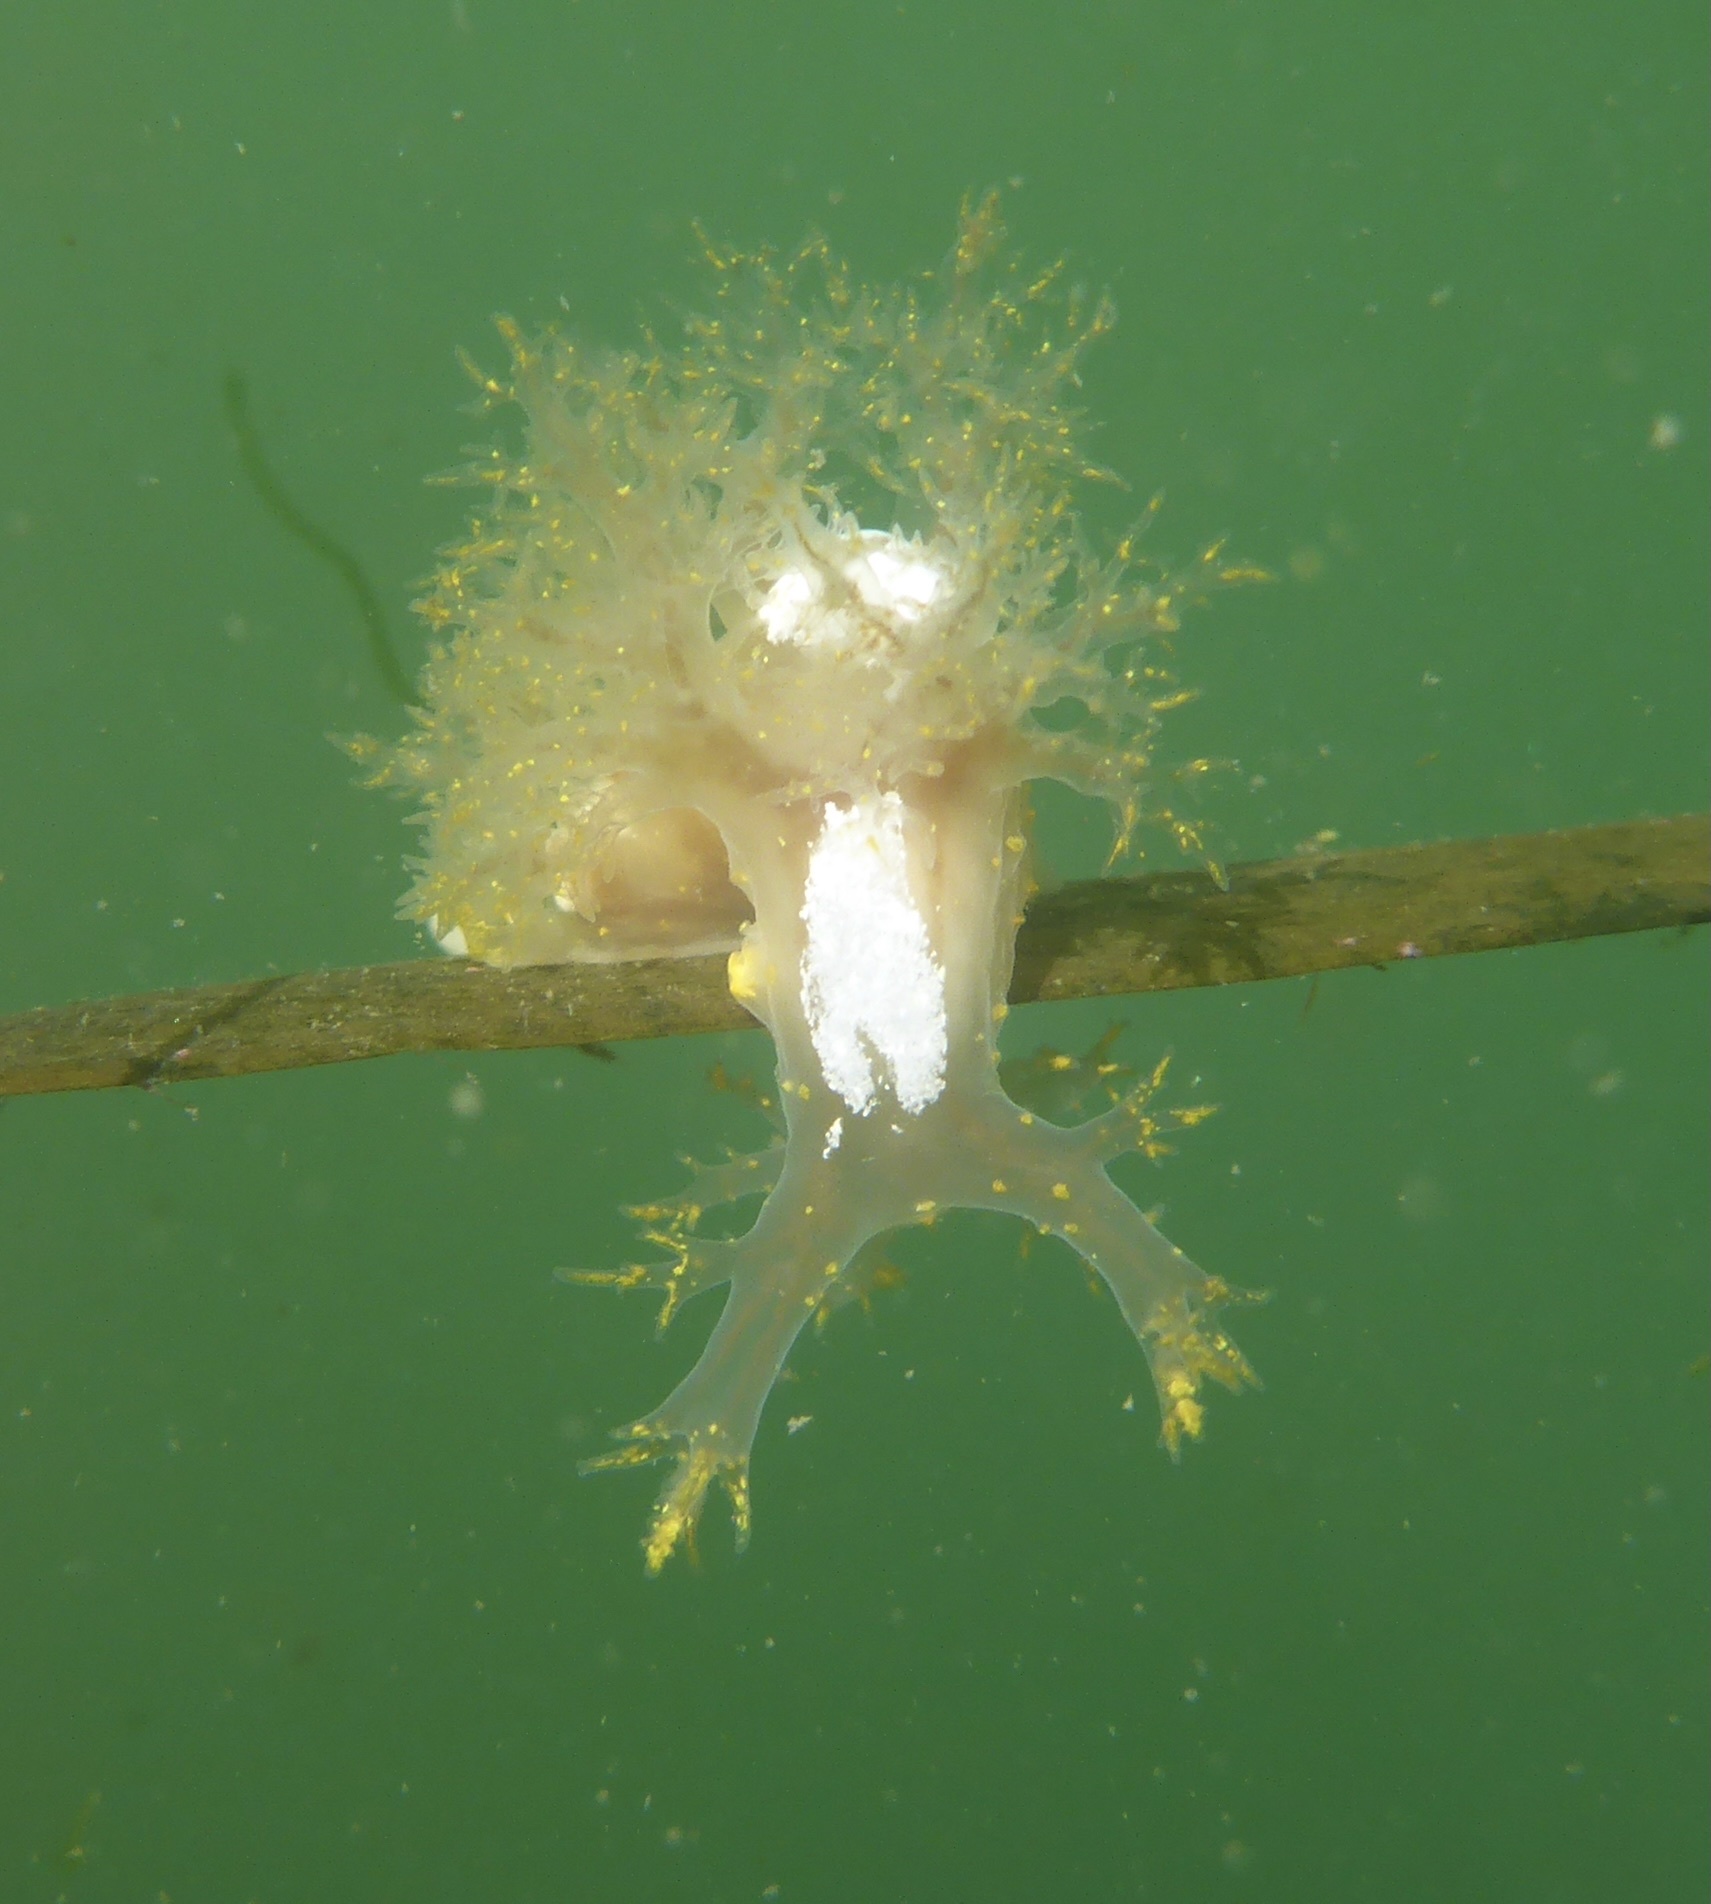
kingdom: Animalia
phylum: Mollusca
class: Gastropoda
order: Nudibranchia
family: Dendronotidae
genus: Dendronotus
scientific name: Dendronotus venustus
